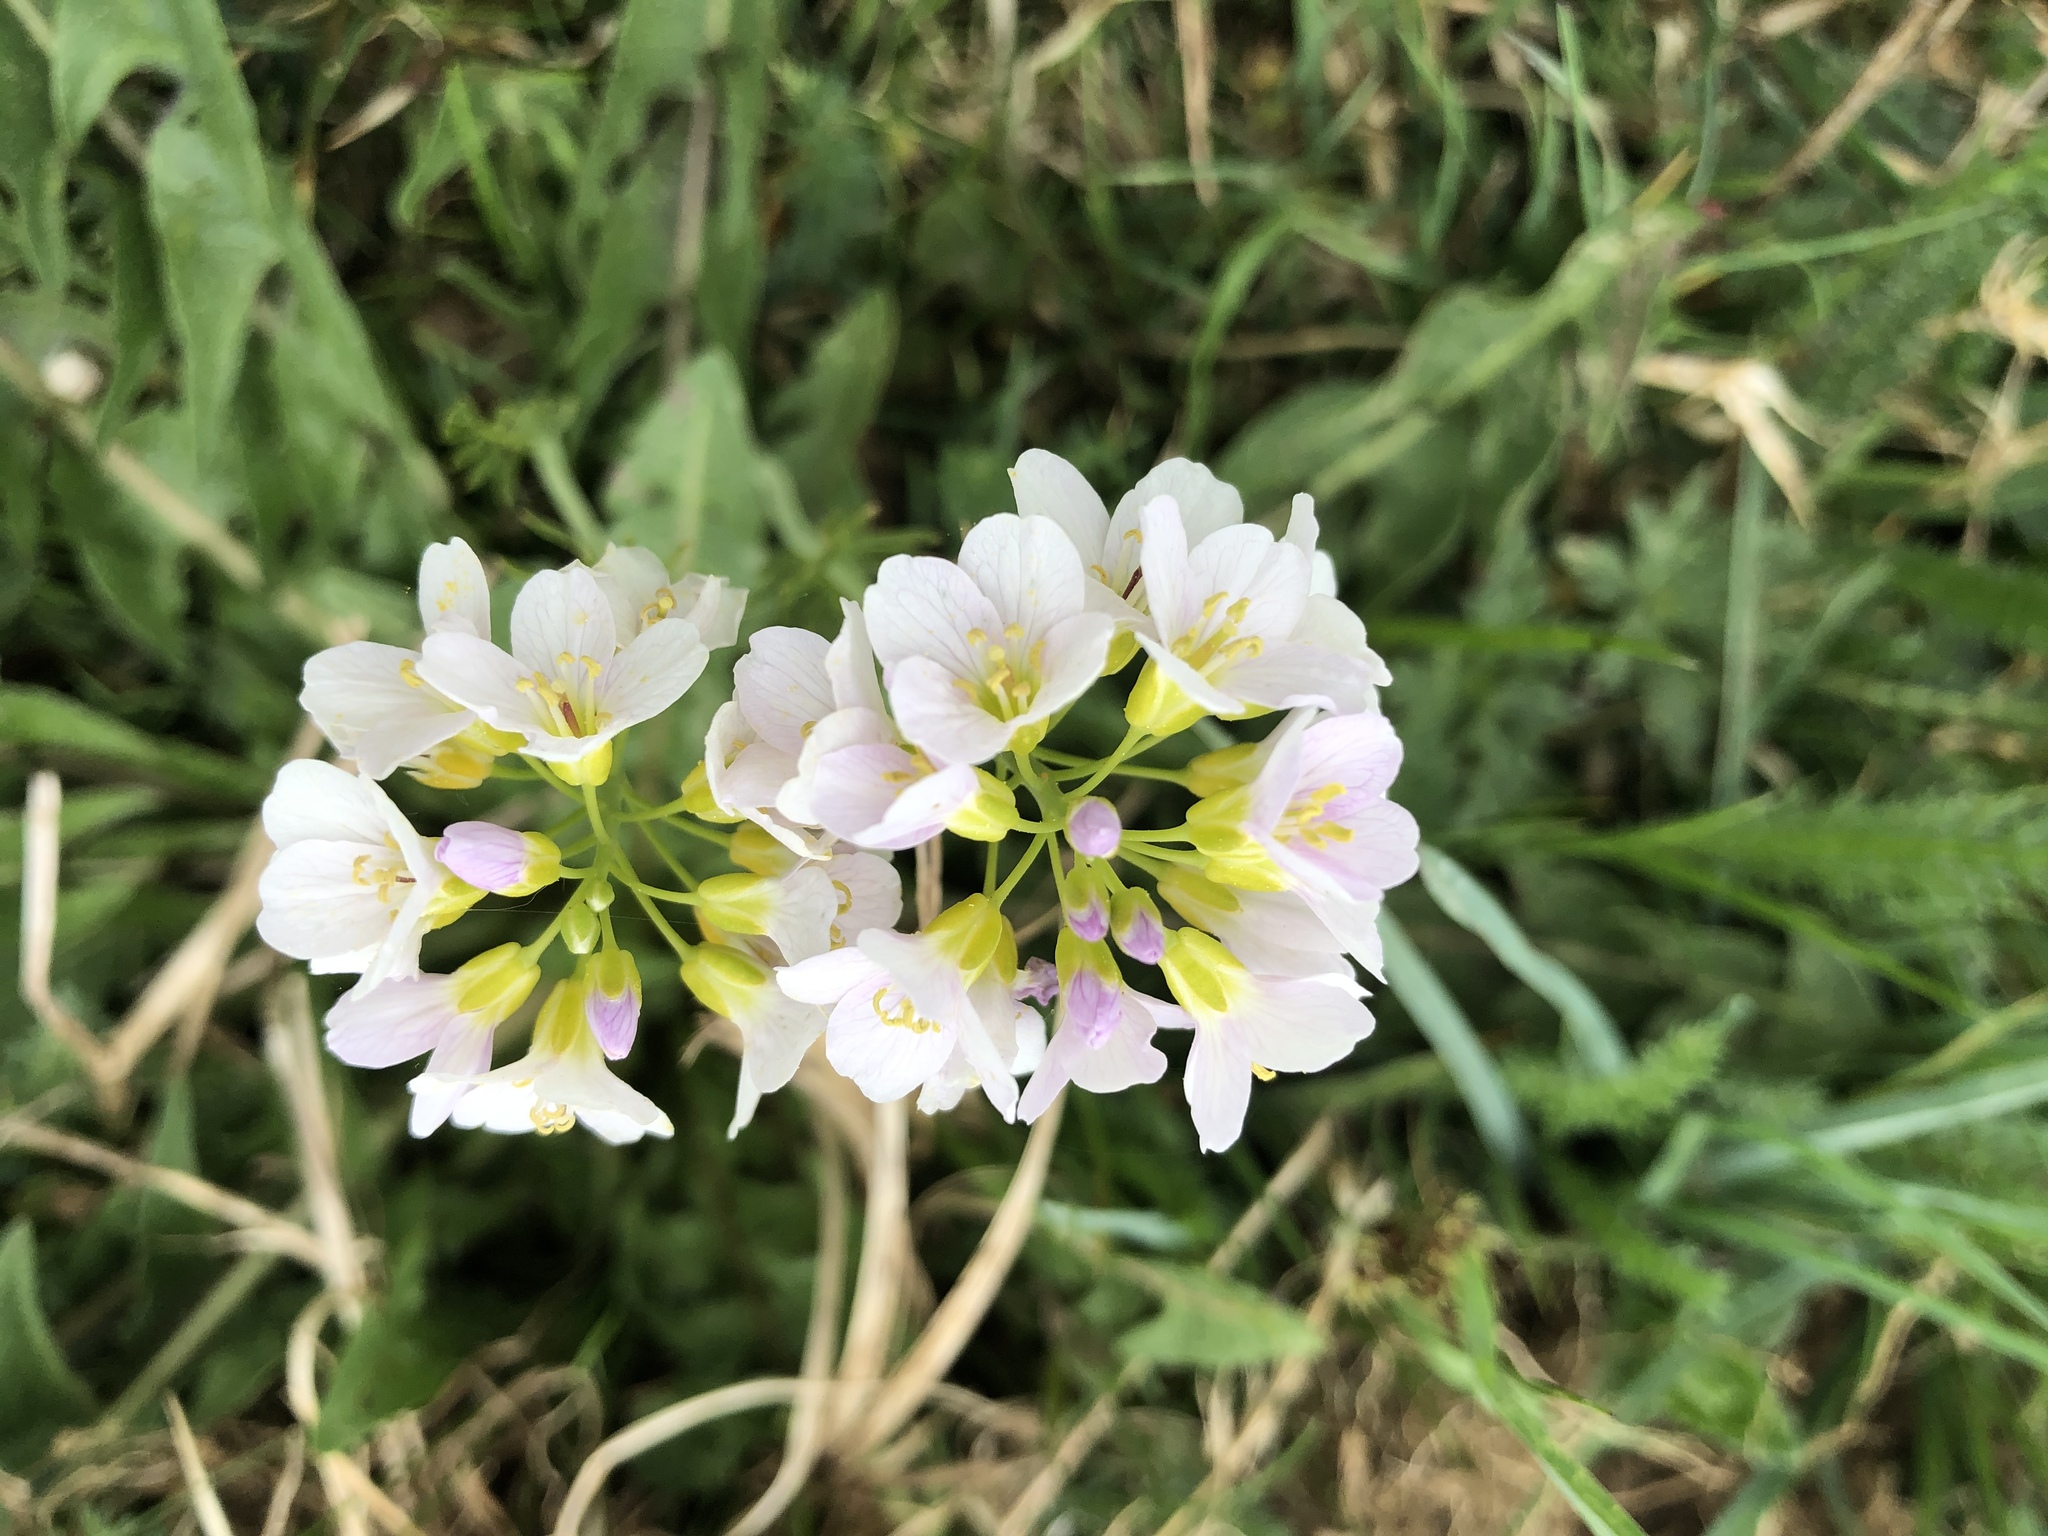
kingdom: Plantae
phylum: Tracheophyta
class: Magnoliopsida
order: Brassicales
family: Brassicaceae
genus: Cardamine
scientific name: Cardamine pratensis
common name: Cuckoo flower
